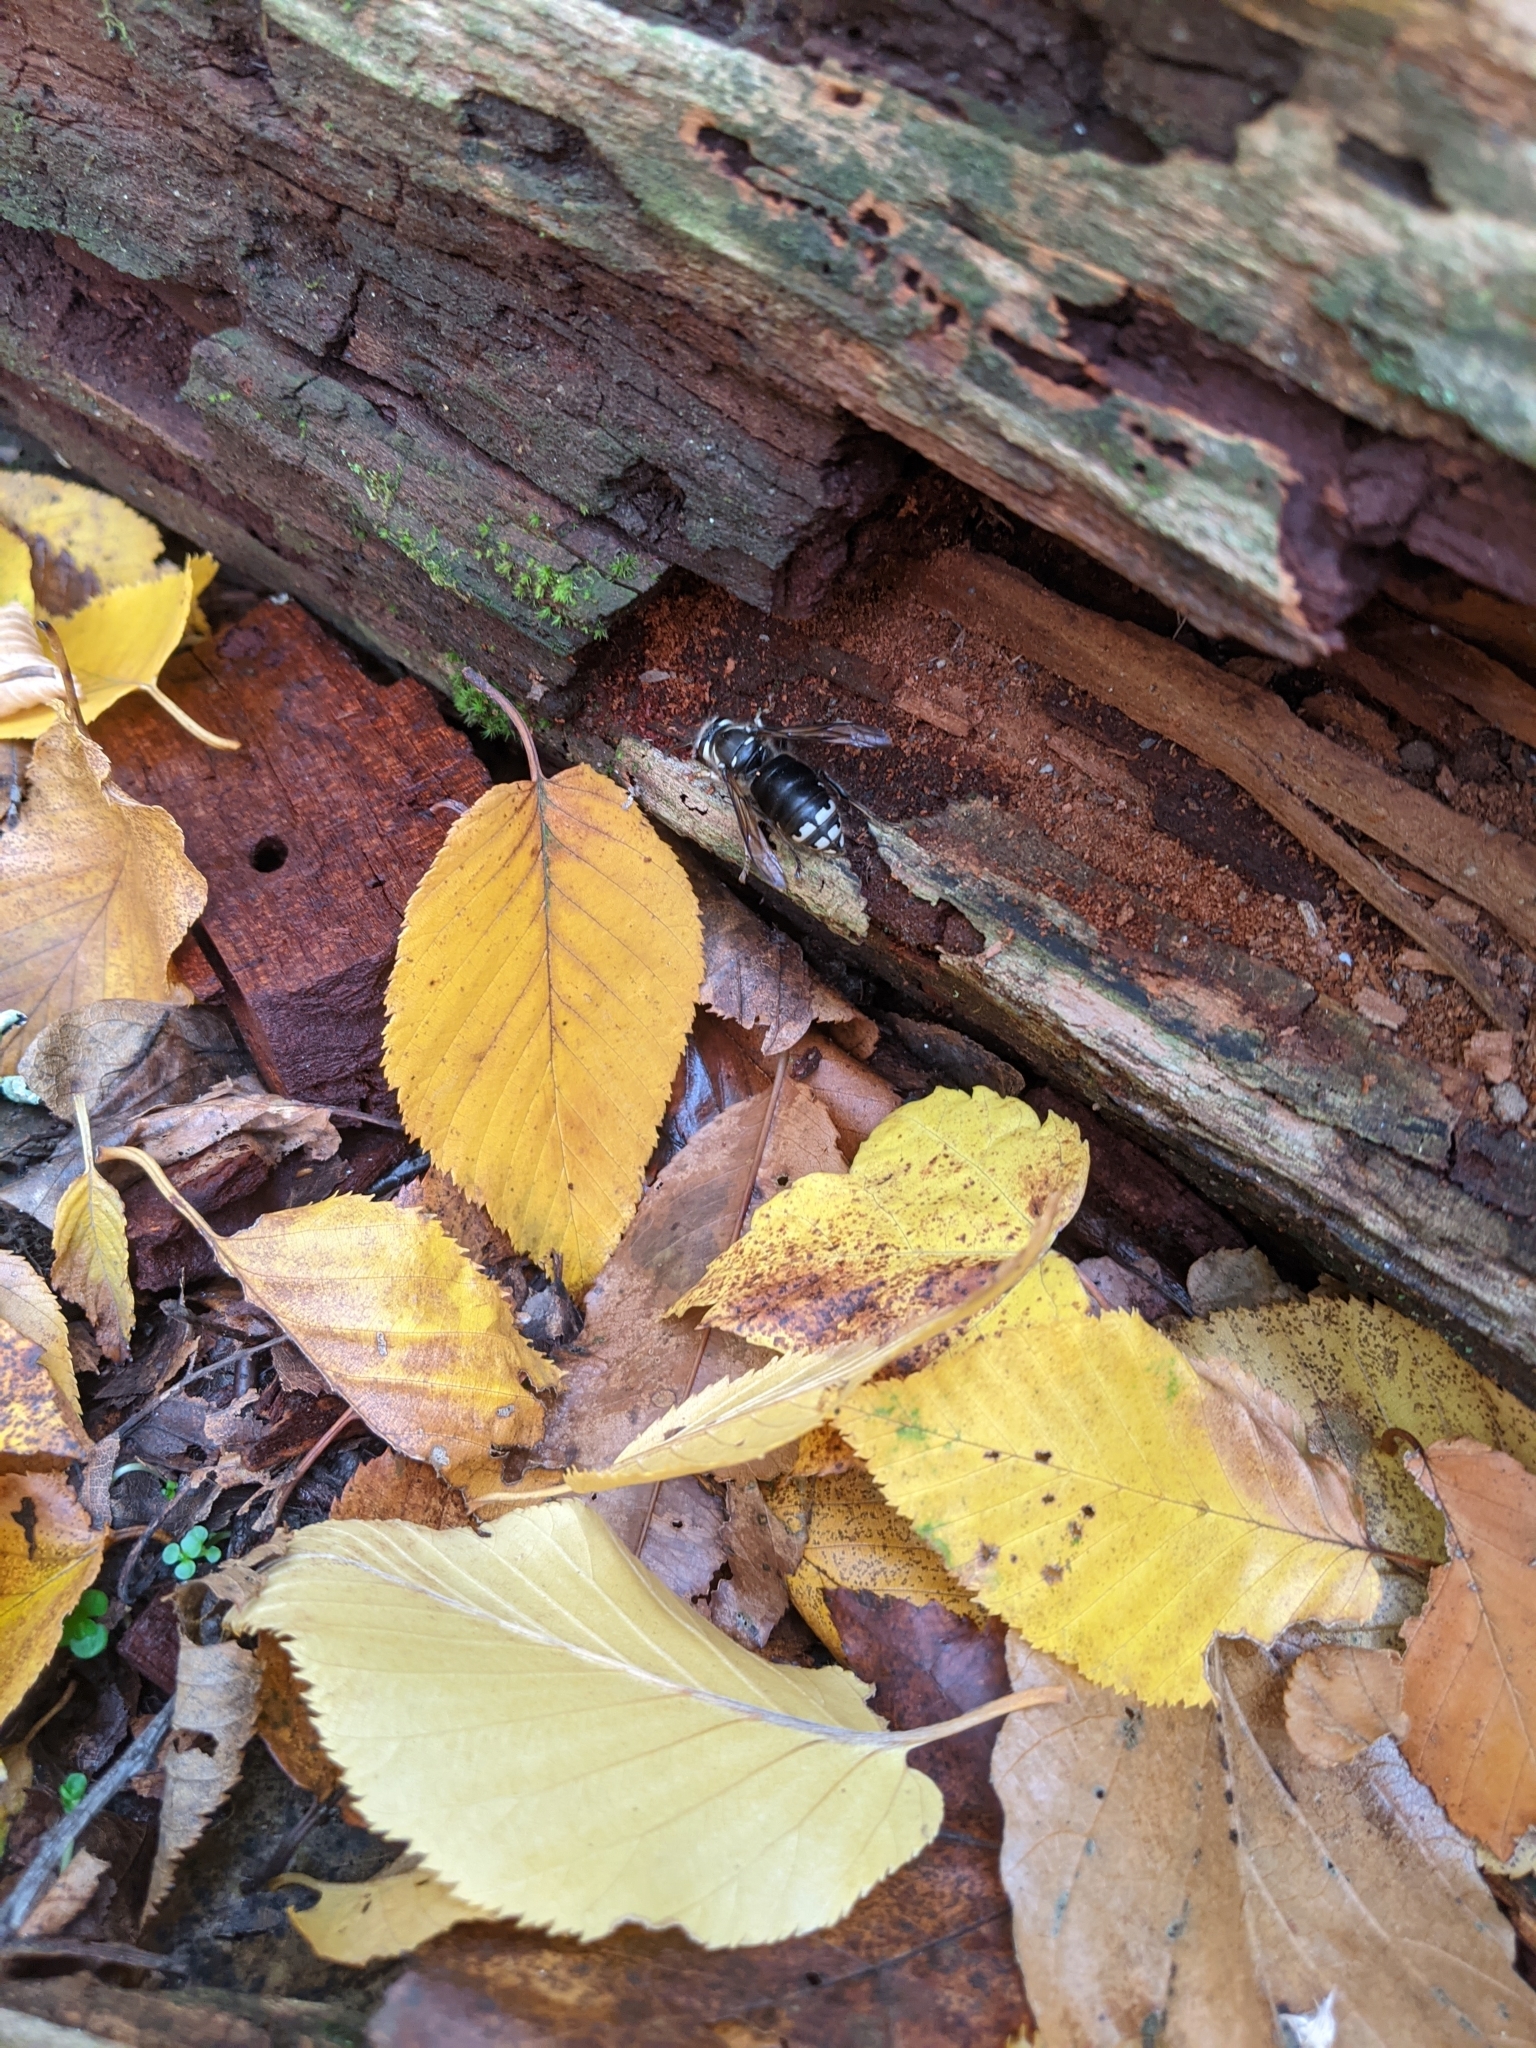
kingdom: Animalia
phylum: Arthropoda
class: Insecta
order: Hymenoptera
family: Vespidae
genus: Dolichovespula
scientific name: Dolichovespula maculata
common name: Bald-faced hornet
